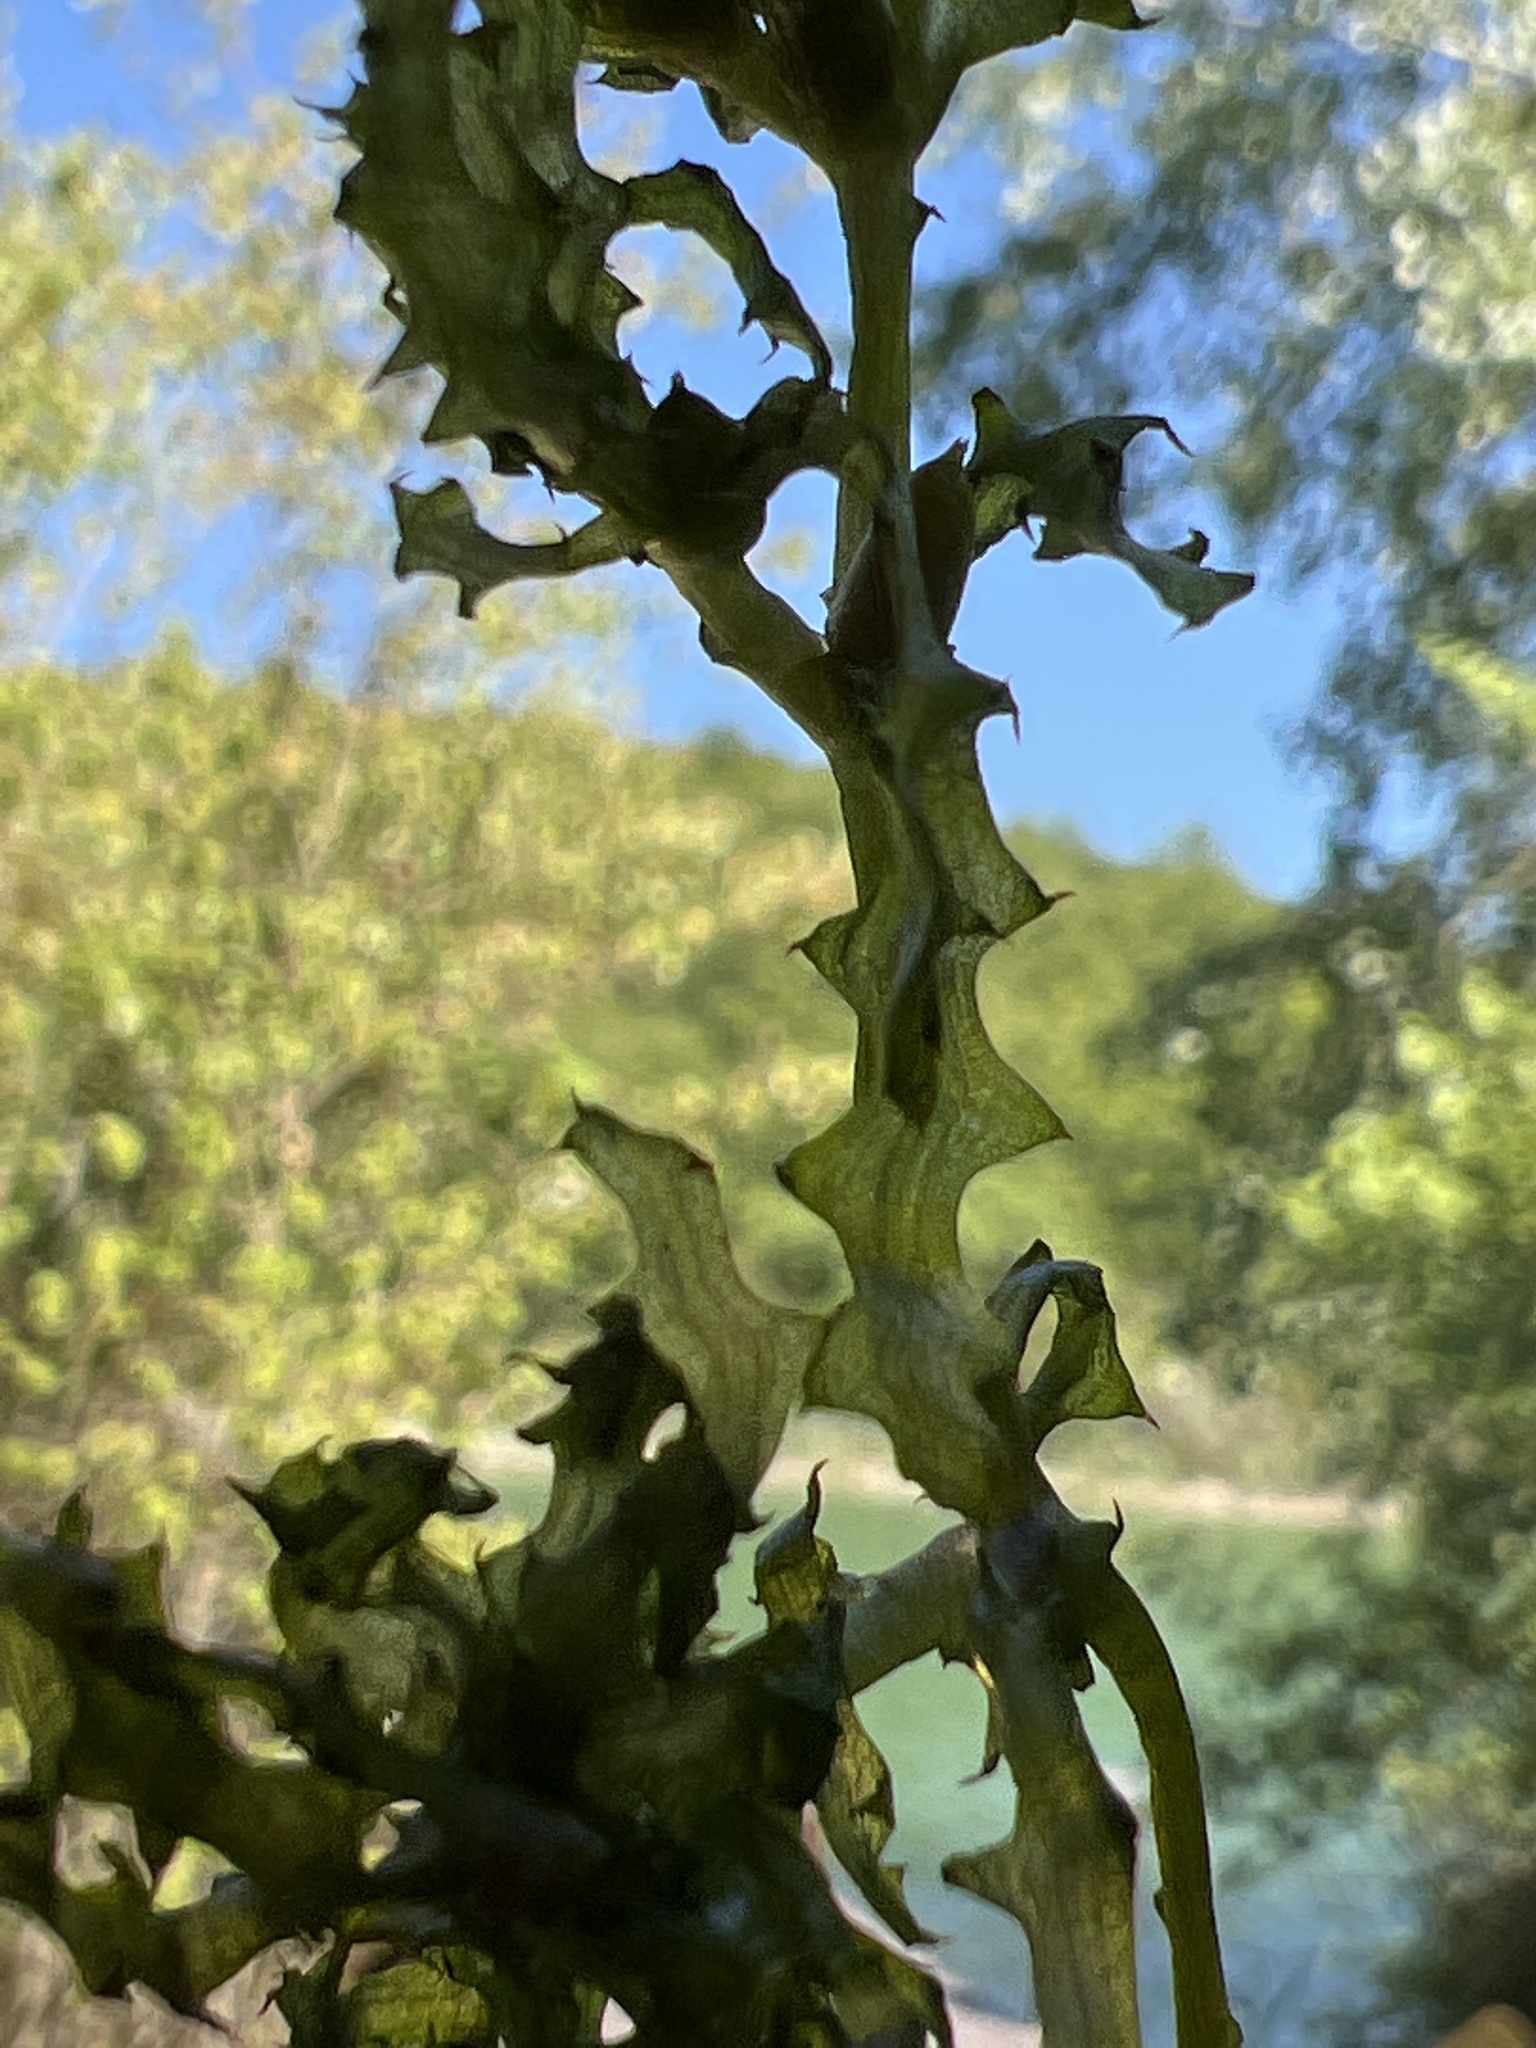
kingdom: Plantae
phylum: Tracheophyta
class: Liliopsida
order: Alismatales
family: Hydrocharitaceae
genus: Najas
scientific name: Najas marina
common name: Holly-leaved naiad
